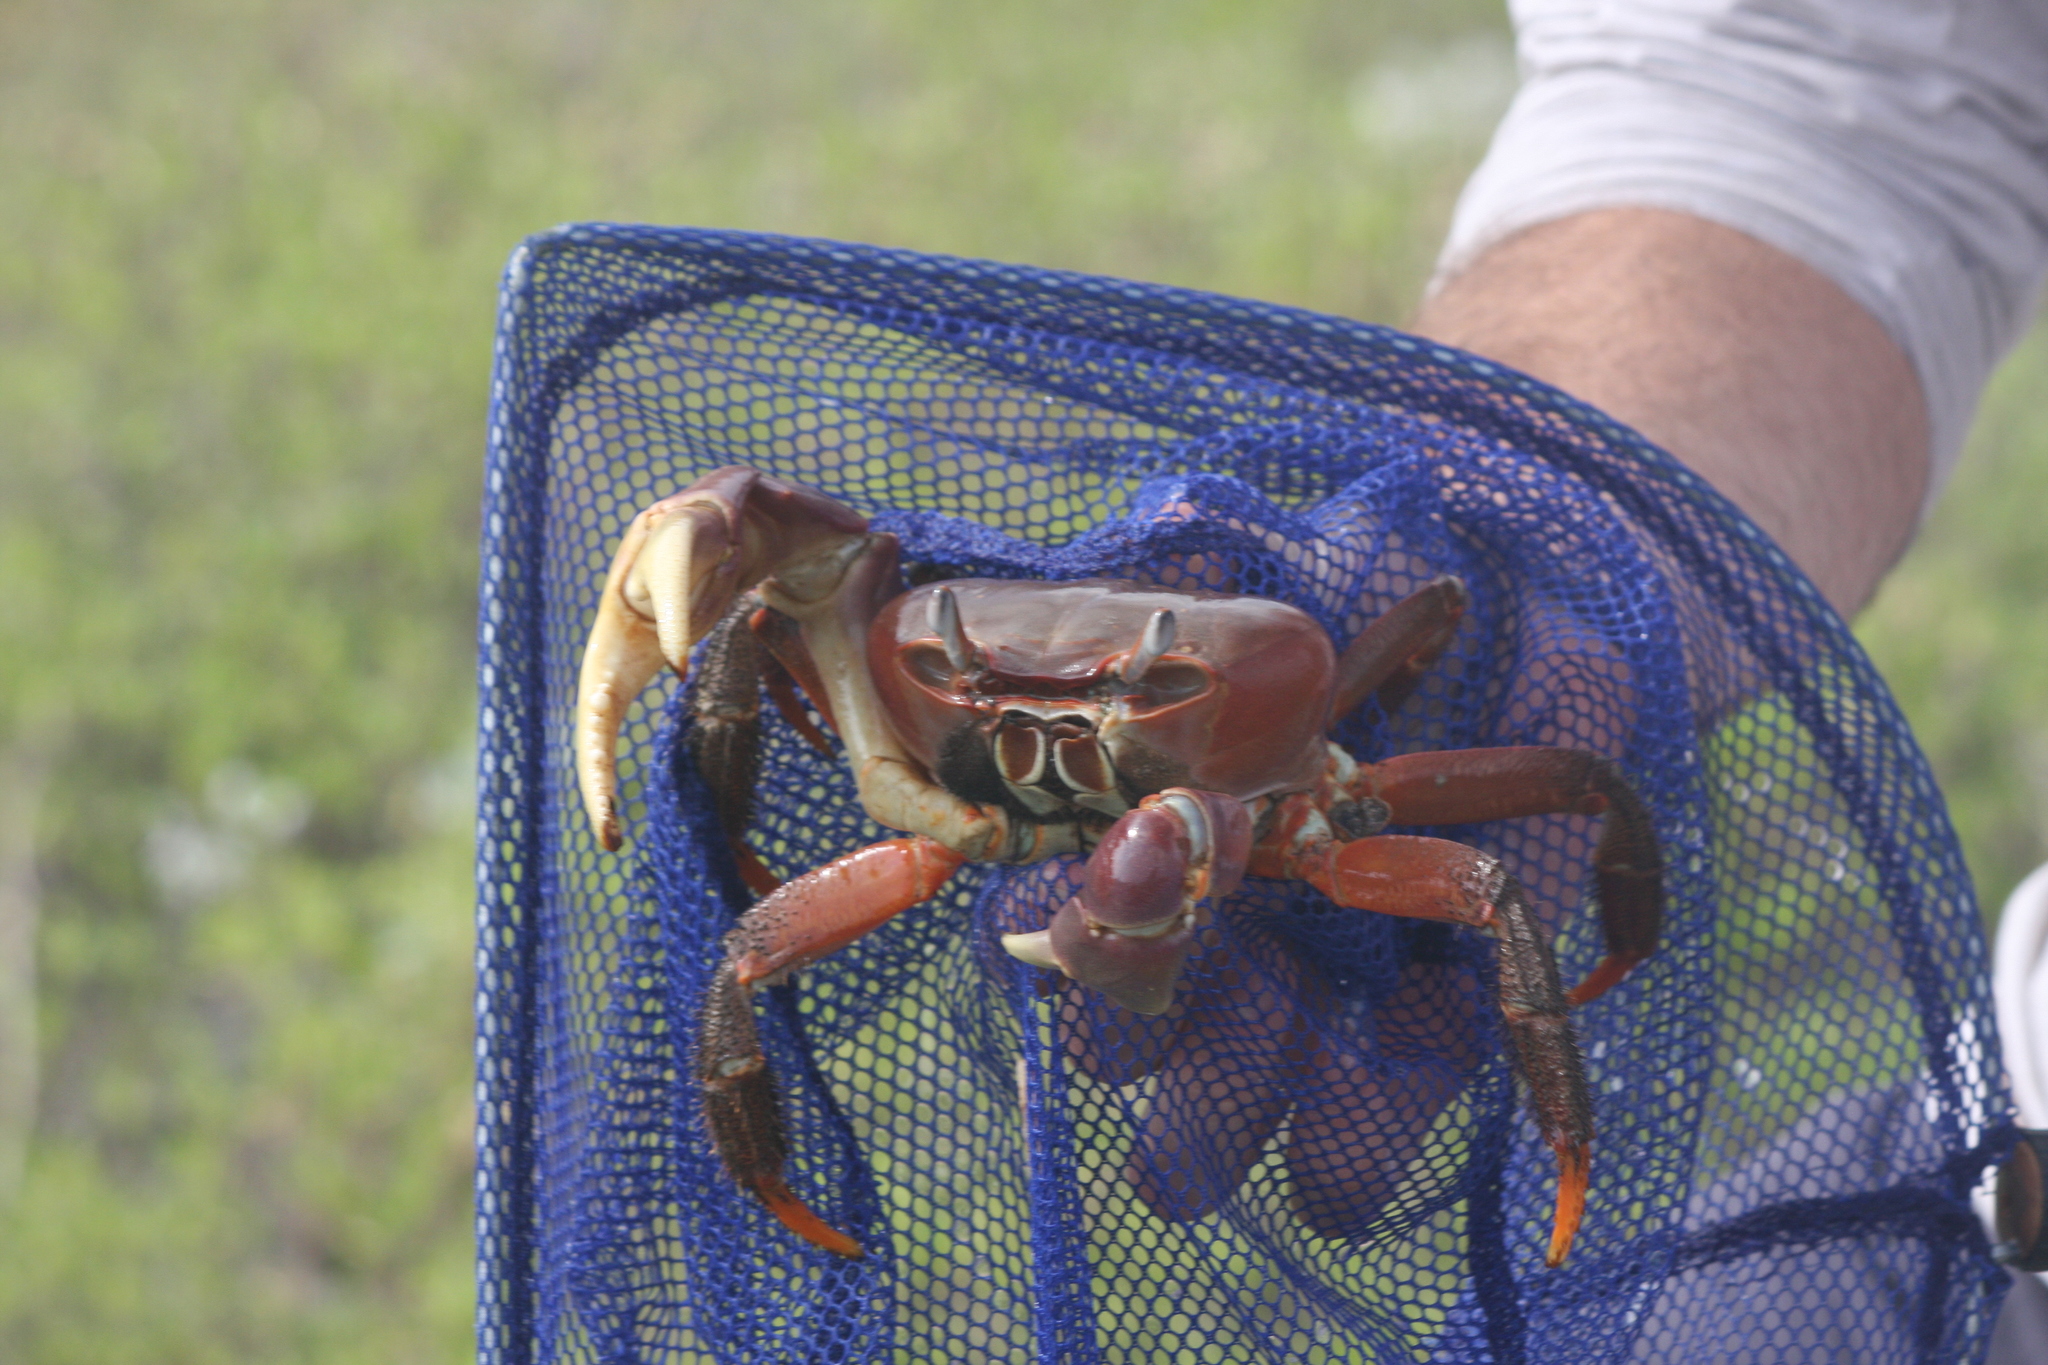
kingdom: Animalia
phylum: Arthropoda
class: Malacostraca
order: Decapoda
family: Gecarcinidae
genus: Cardisoma
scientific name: Cardisoma carnifex
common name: Brown land crab
